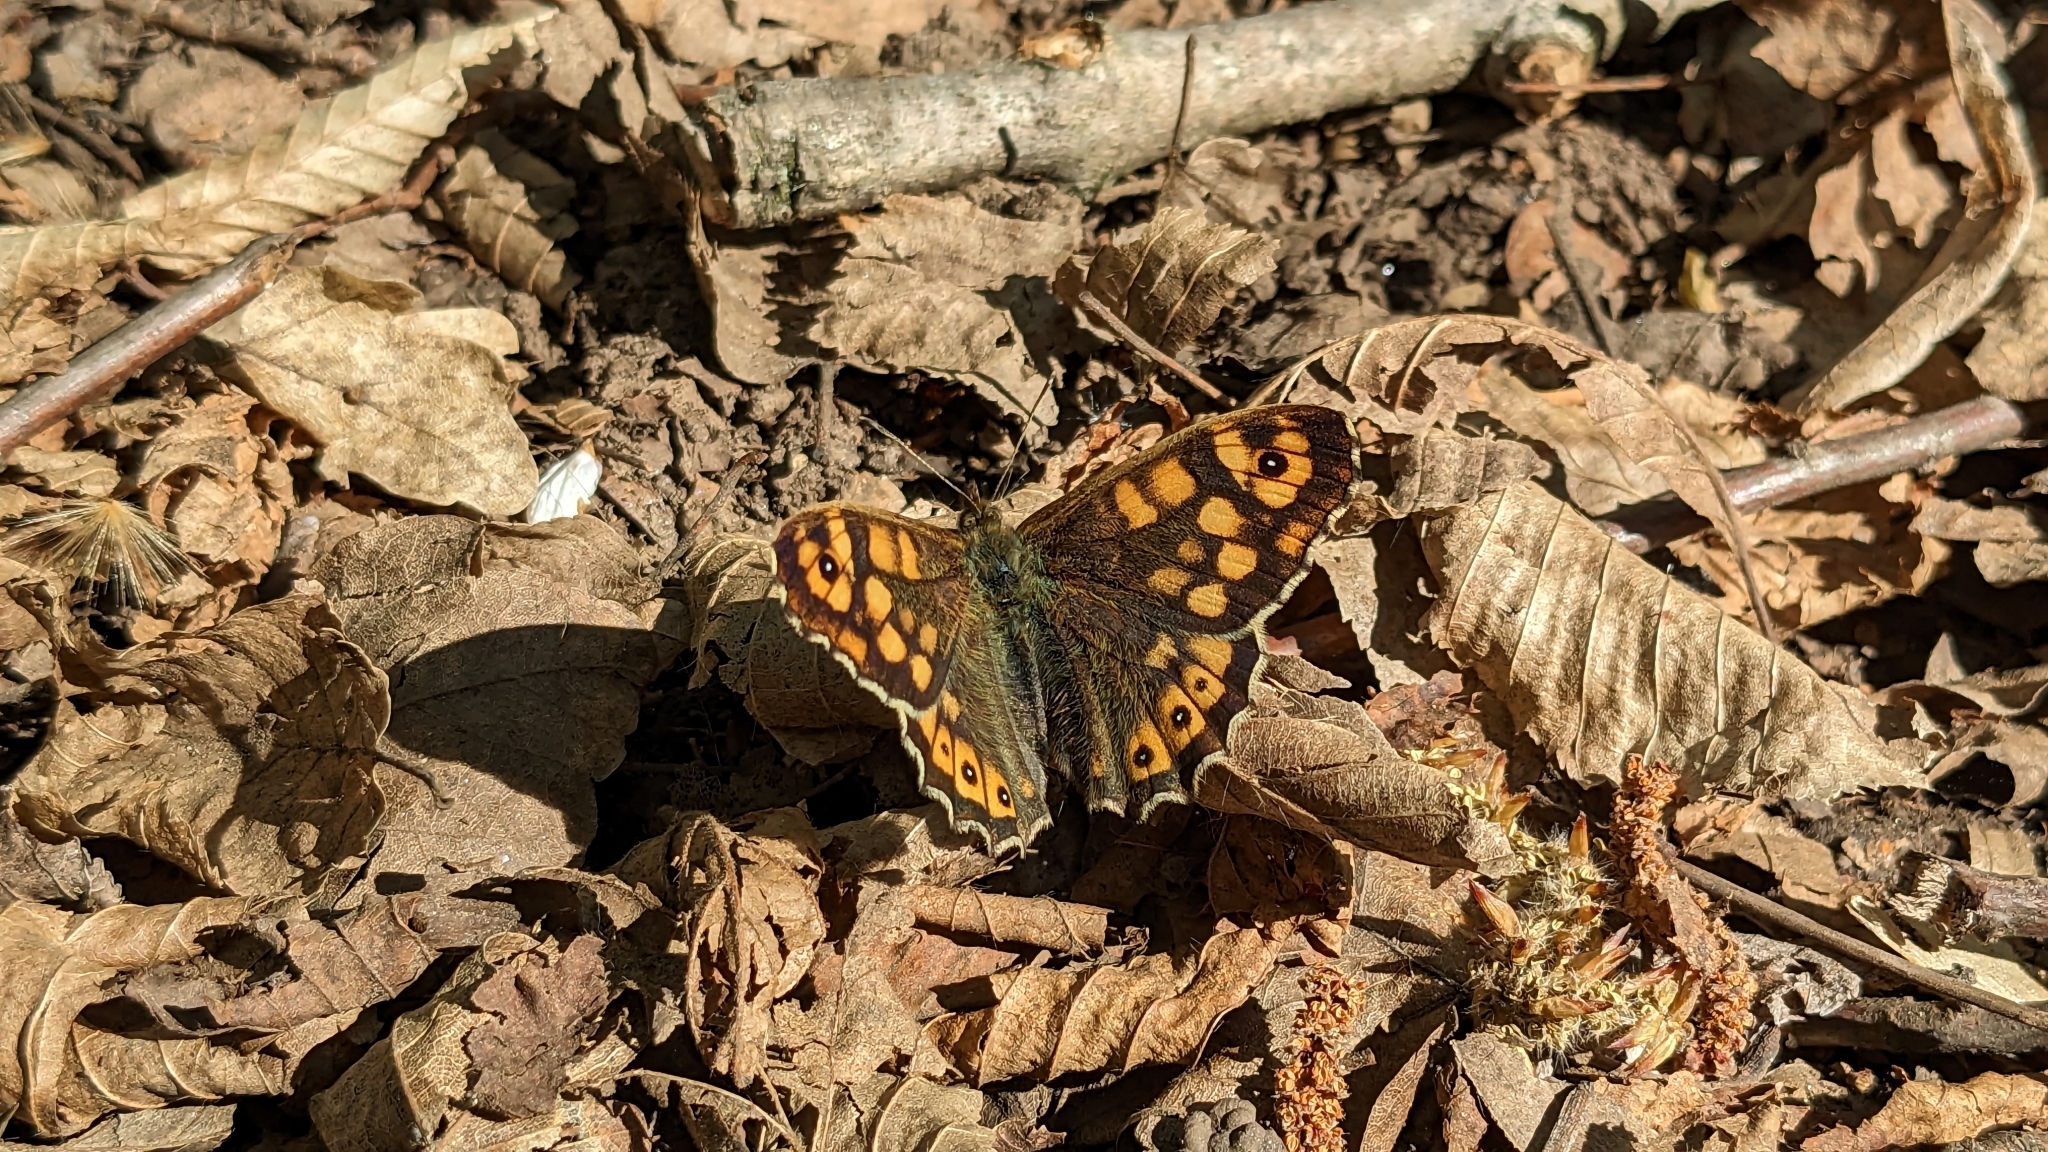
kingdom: Animalia
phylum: Arthropoda
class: Insecta
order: Lepidoptera
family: Nymphalidae
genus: Pararge
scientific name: Pararge aegeria
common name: Speckled wood
